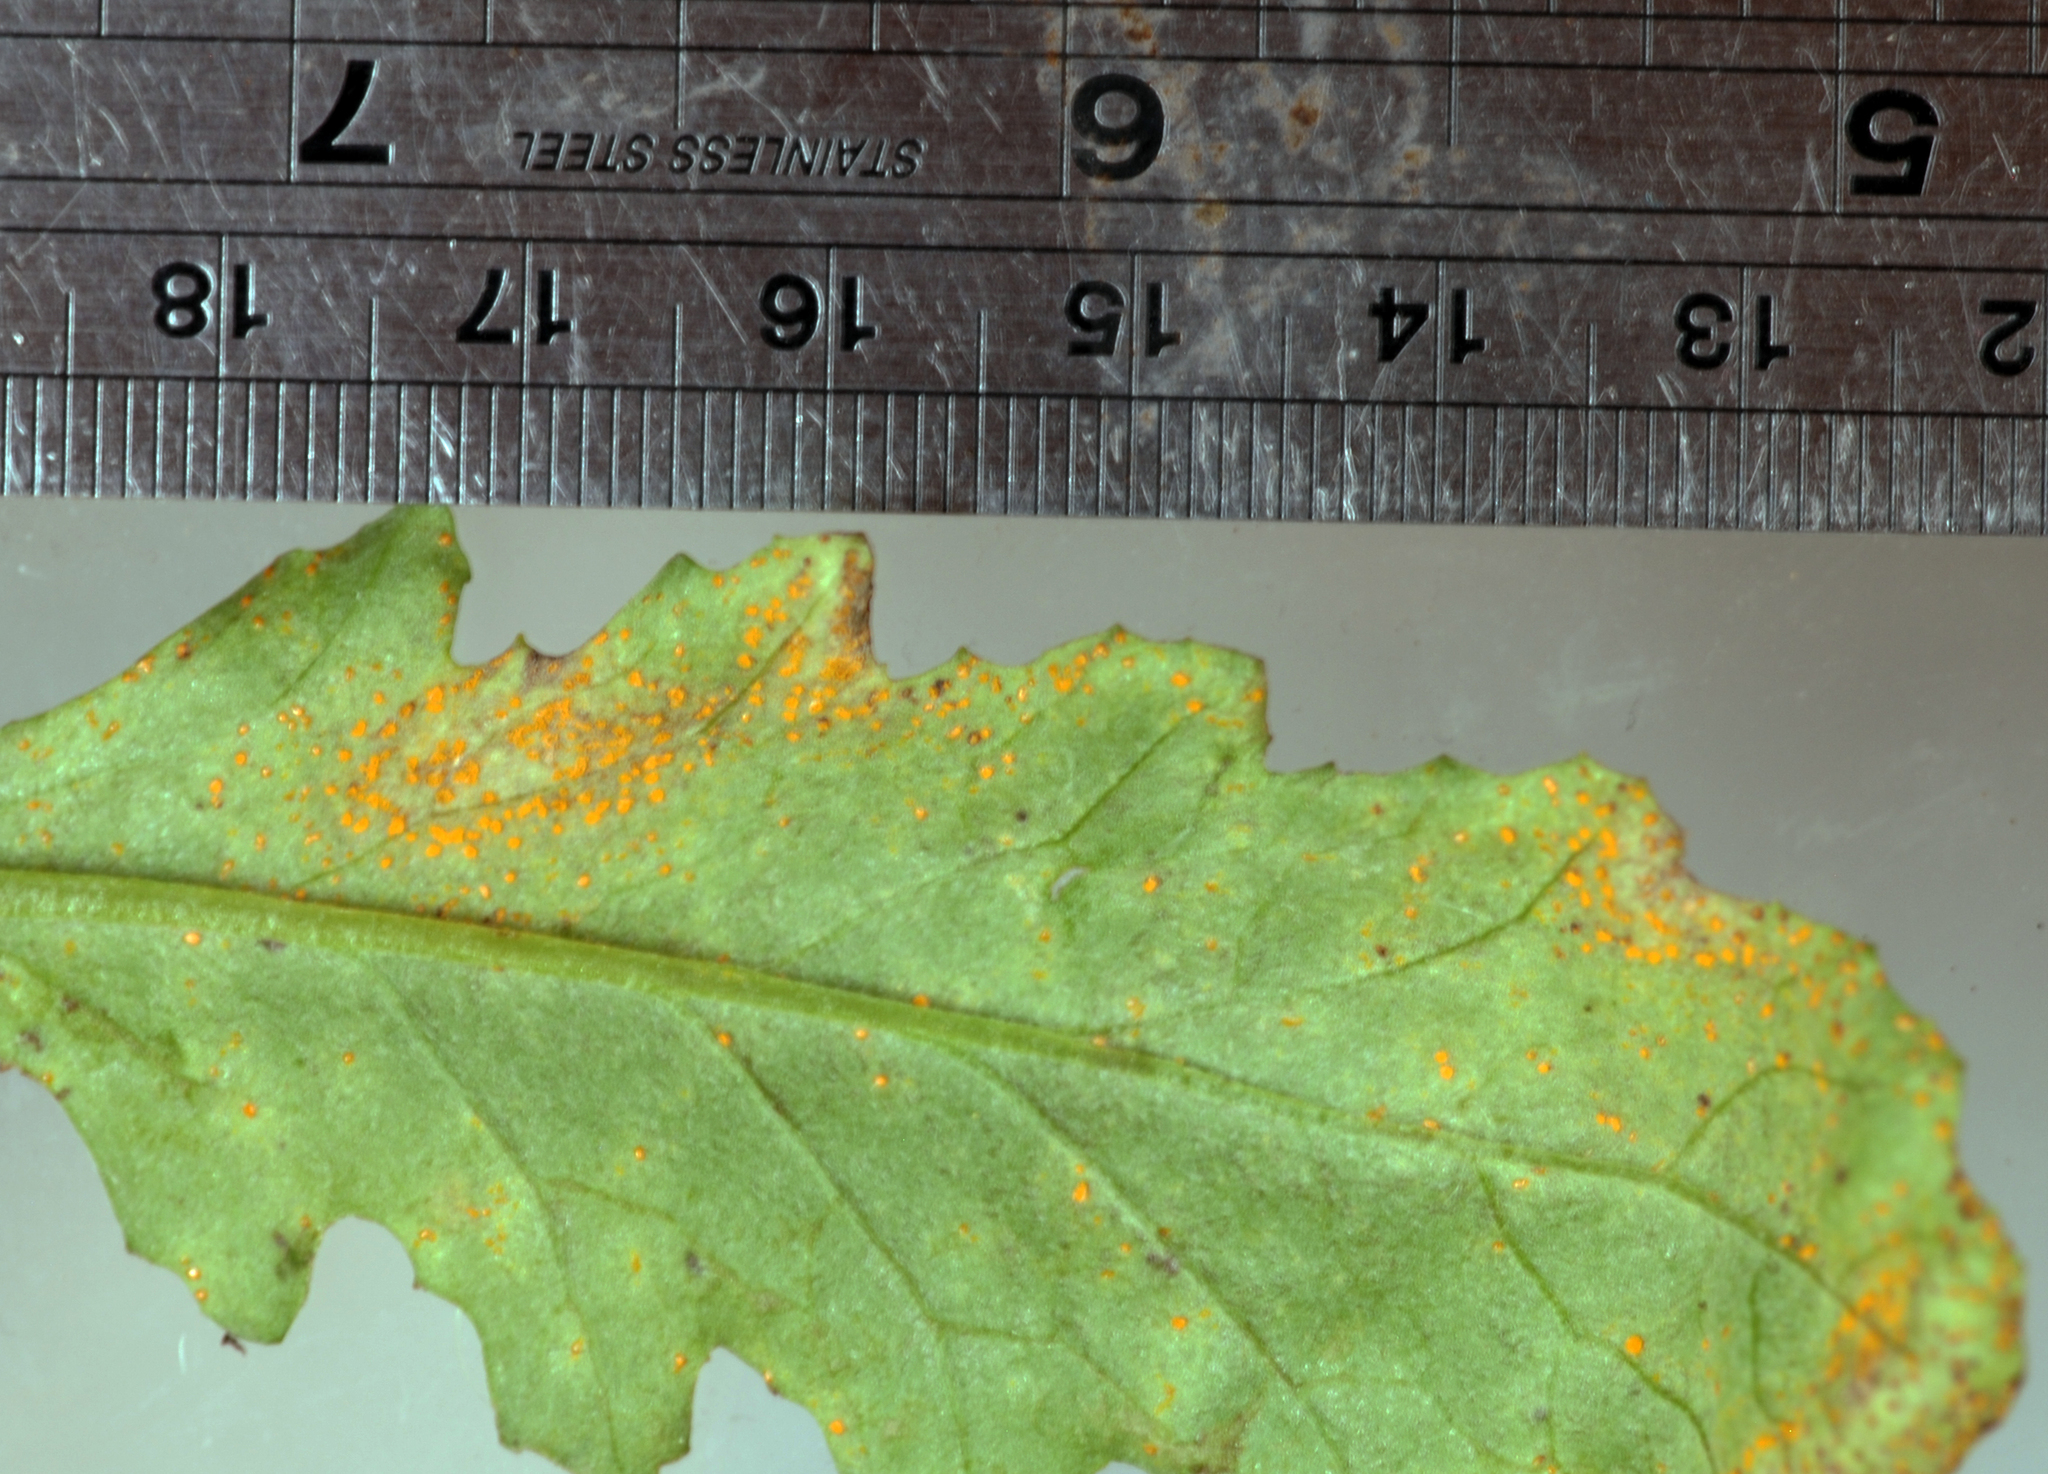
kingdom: Fungi
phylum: Basidiomycota
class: Pucciniomycetes
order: Pucciniales
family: Coleosporiaceae
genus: Coleosporium
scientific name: Coleosporium tussilaginis
